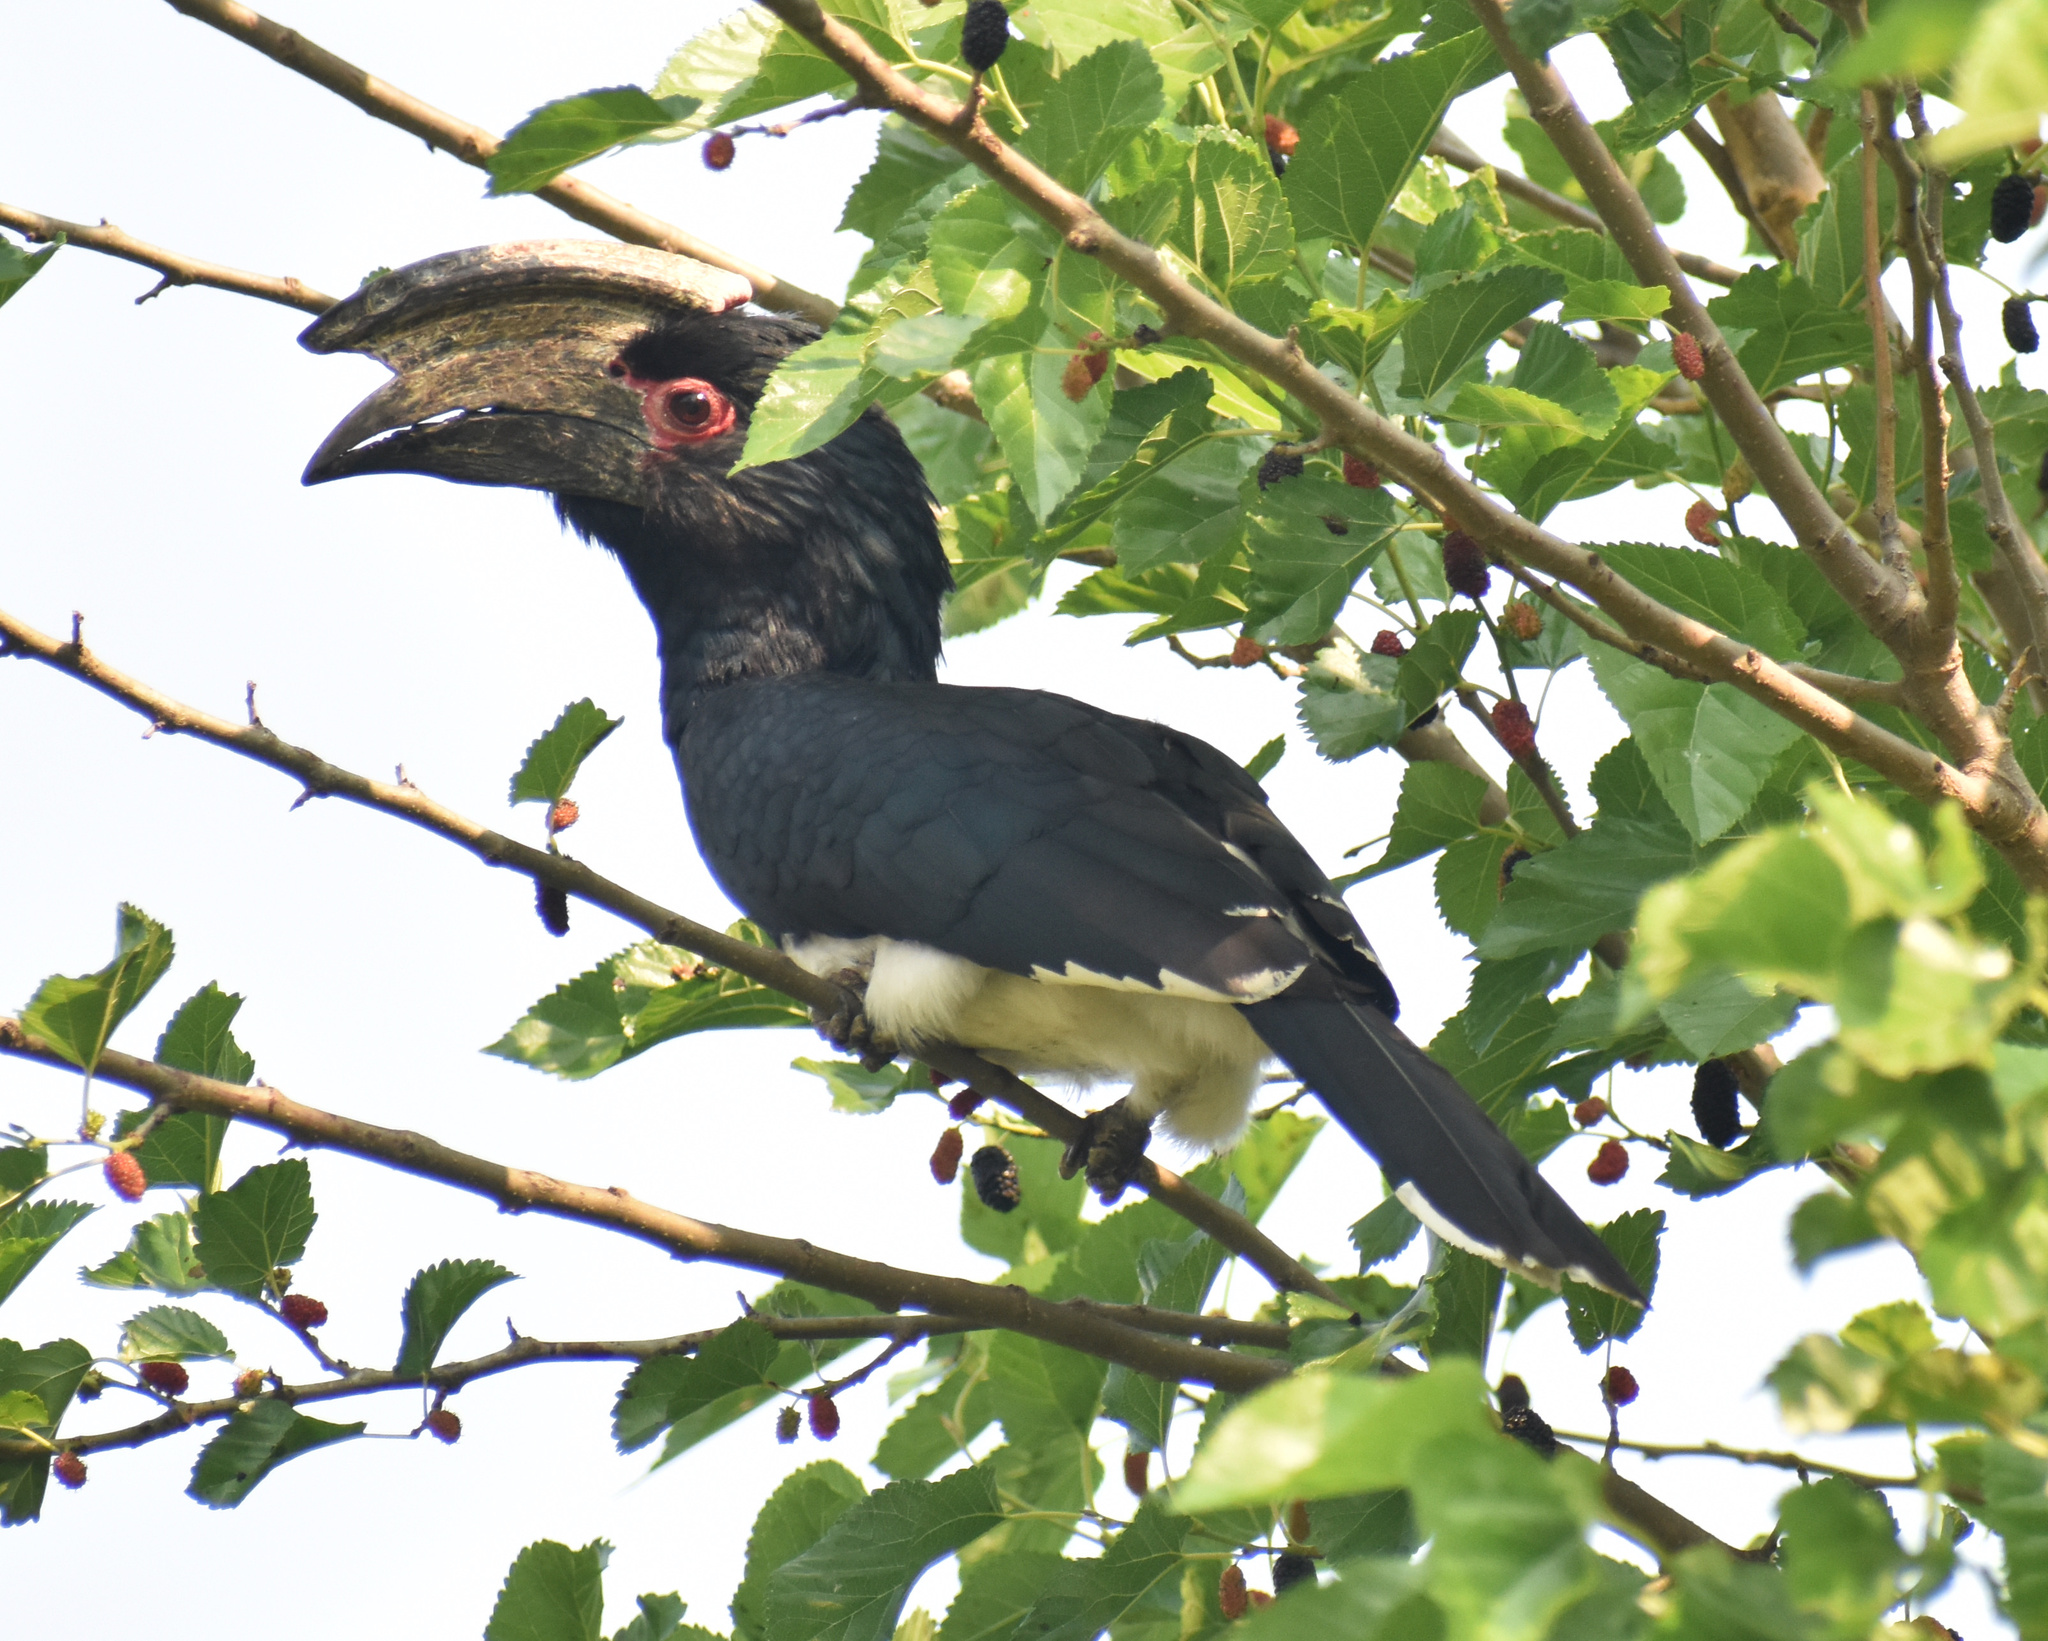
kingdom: Animalia
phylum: Chordata
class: Aves
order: Bucerotiformes
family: Bucerotidae
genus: Bycanistes
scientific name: Bycanistes bucinator
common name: Trumpeter hornbill
